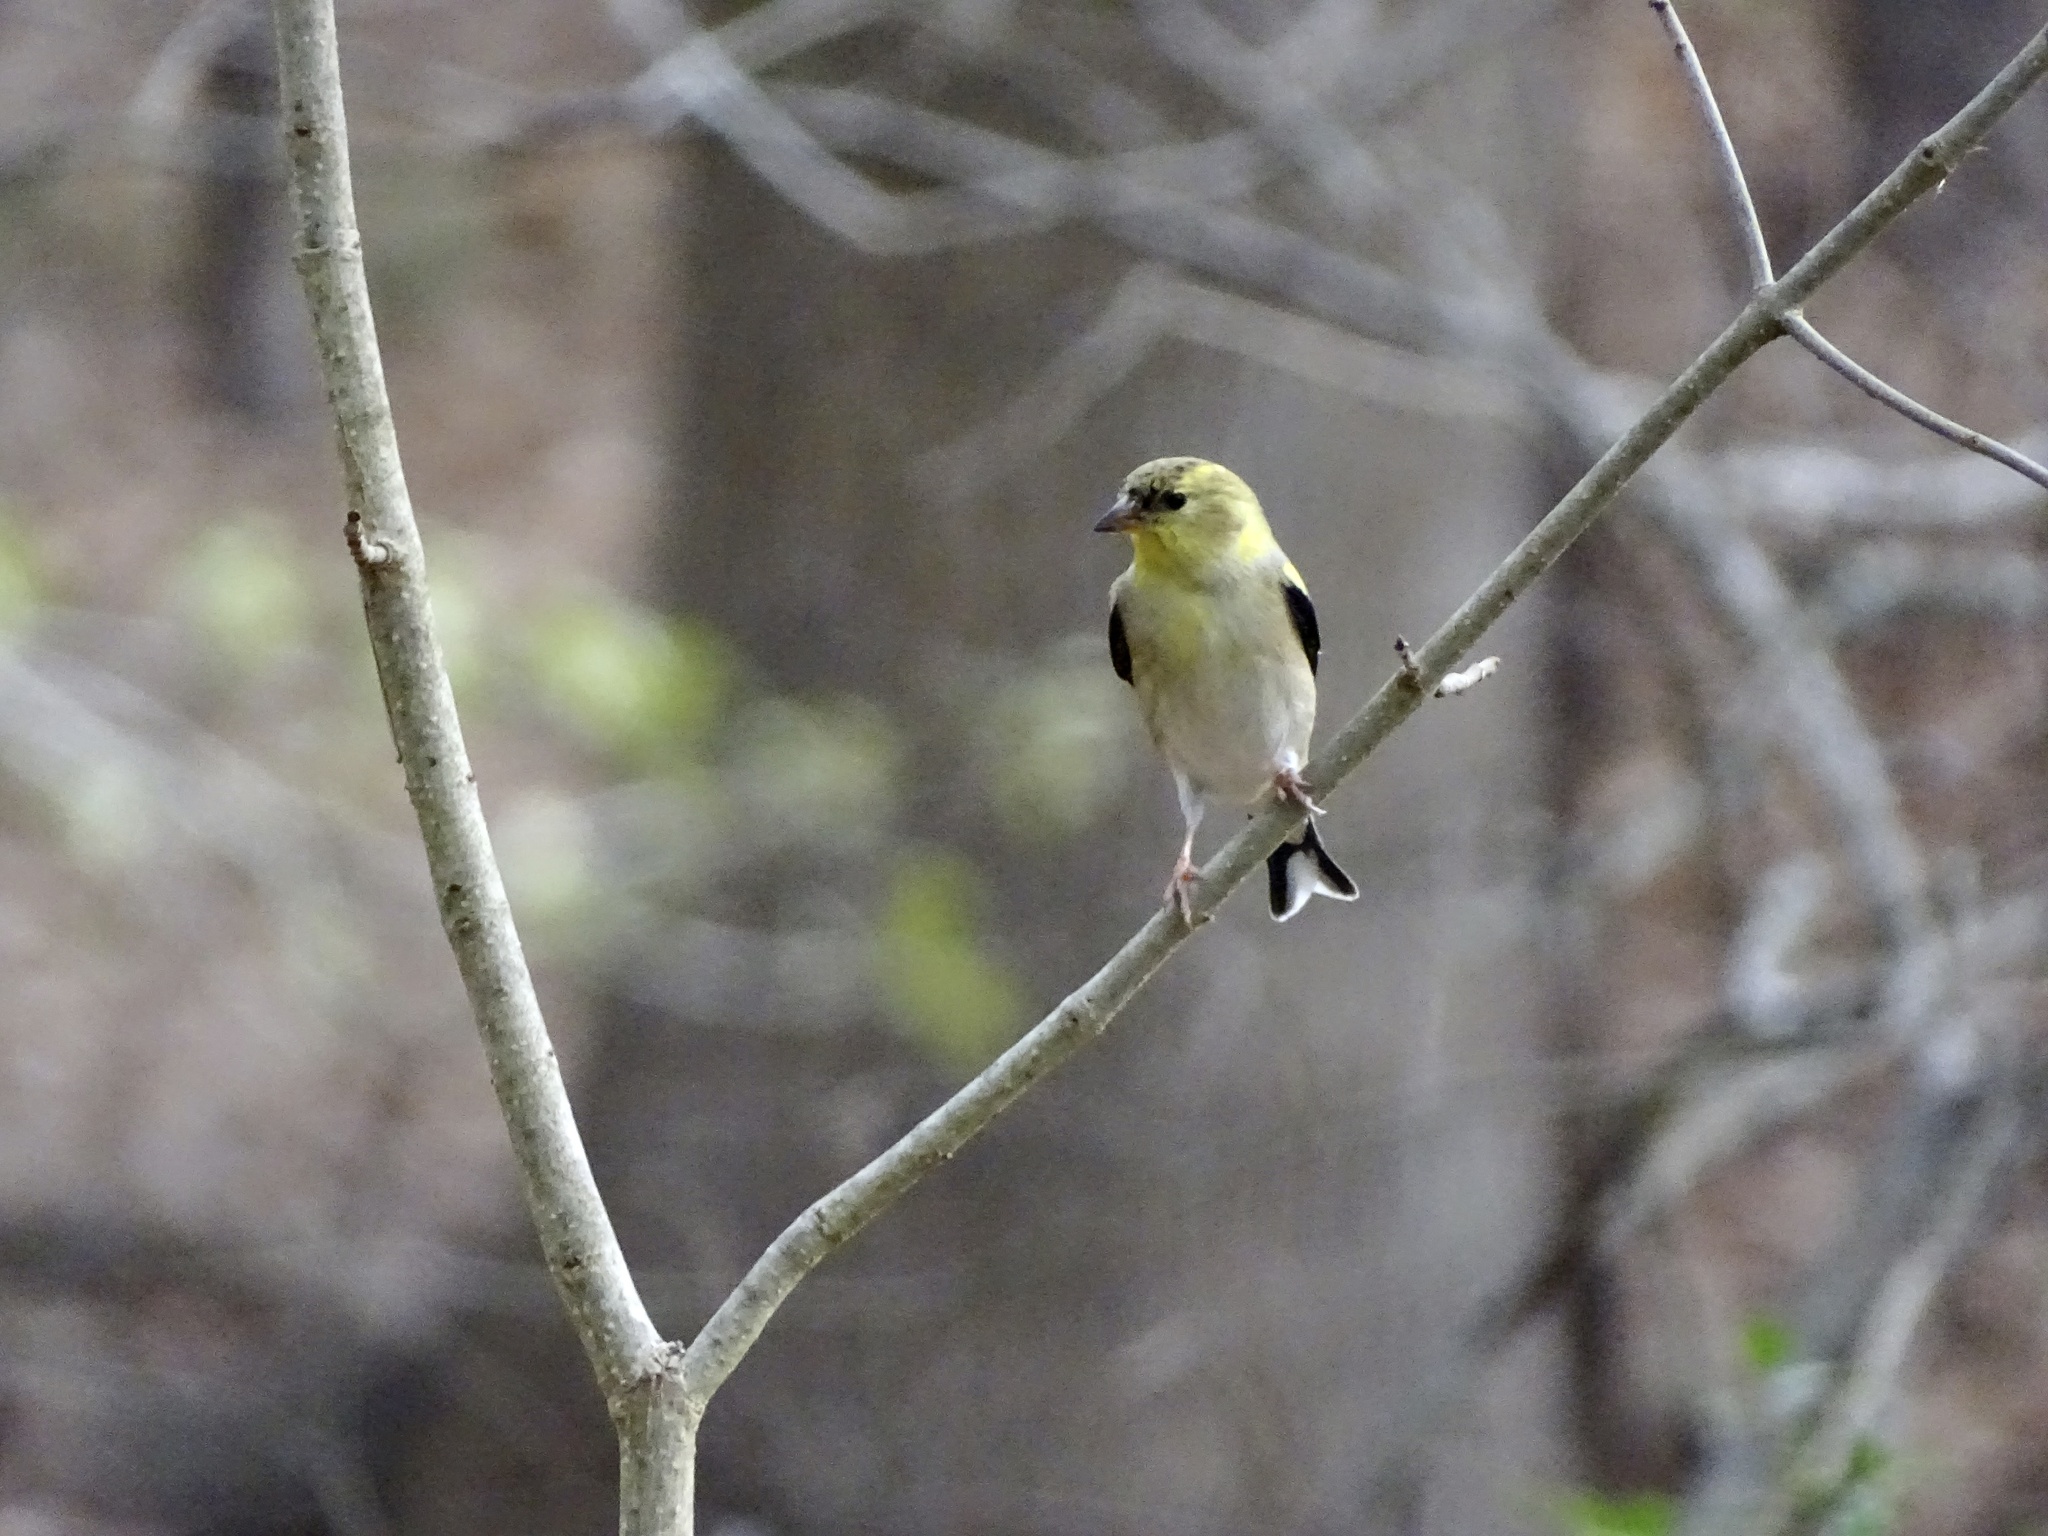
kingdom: Animalia
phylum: Chordata
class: Aves
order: Passeriformes
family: Fringillidae
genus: Spinus
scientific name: Spinus tristis
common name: American goldfinch
